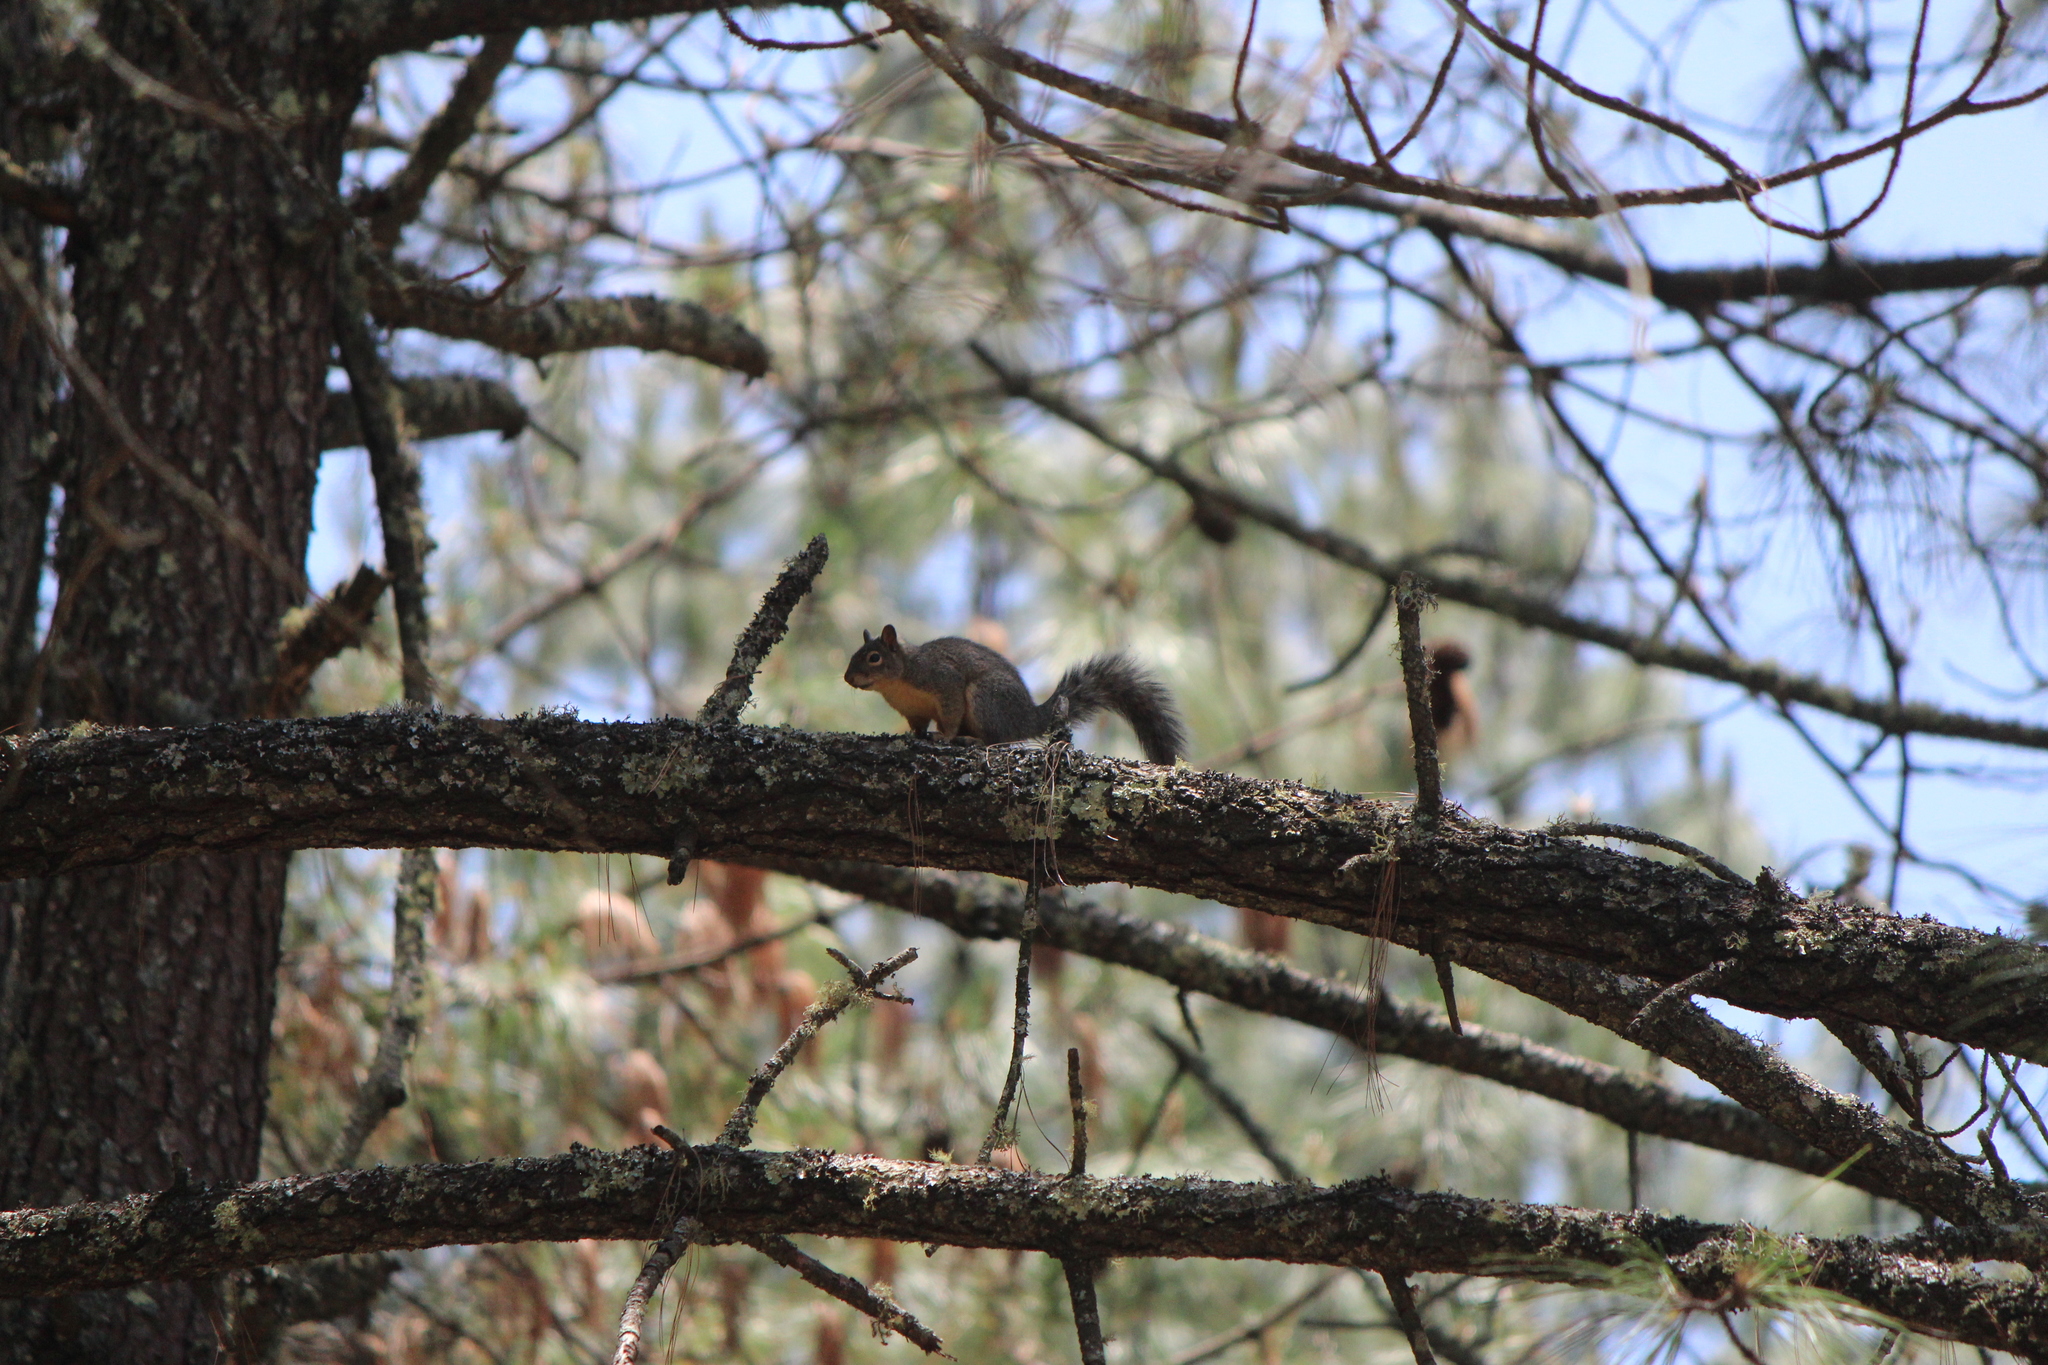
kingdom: Animalia
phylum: Chordata
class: Mammalia
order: Rodentia
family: Sciuridae
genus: Sciurus
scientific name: Sciurus aureogaster
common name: Red-bellied squirrel
